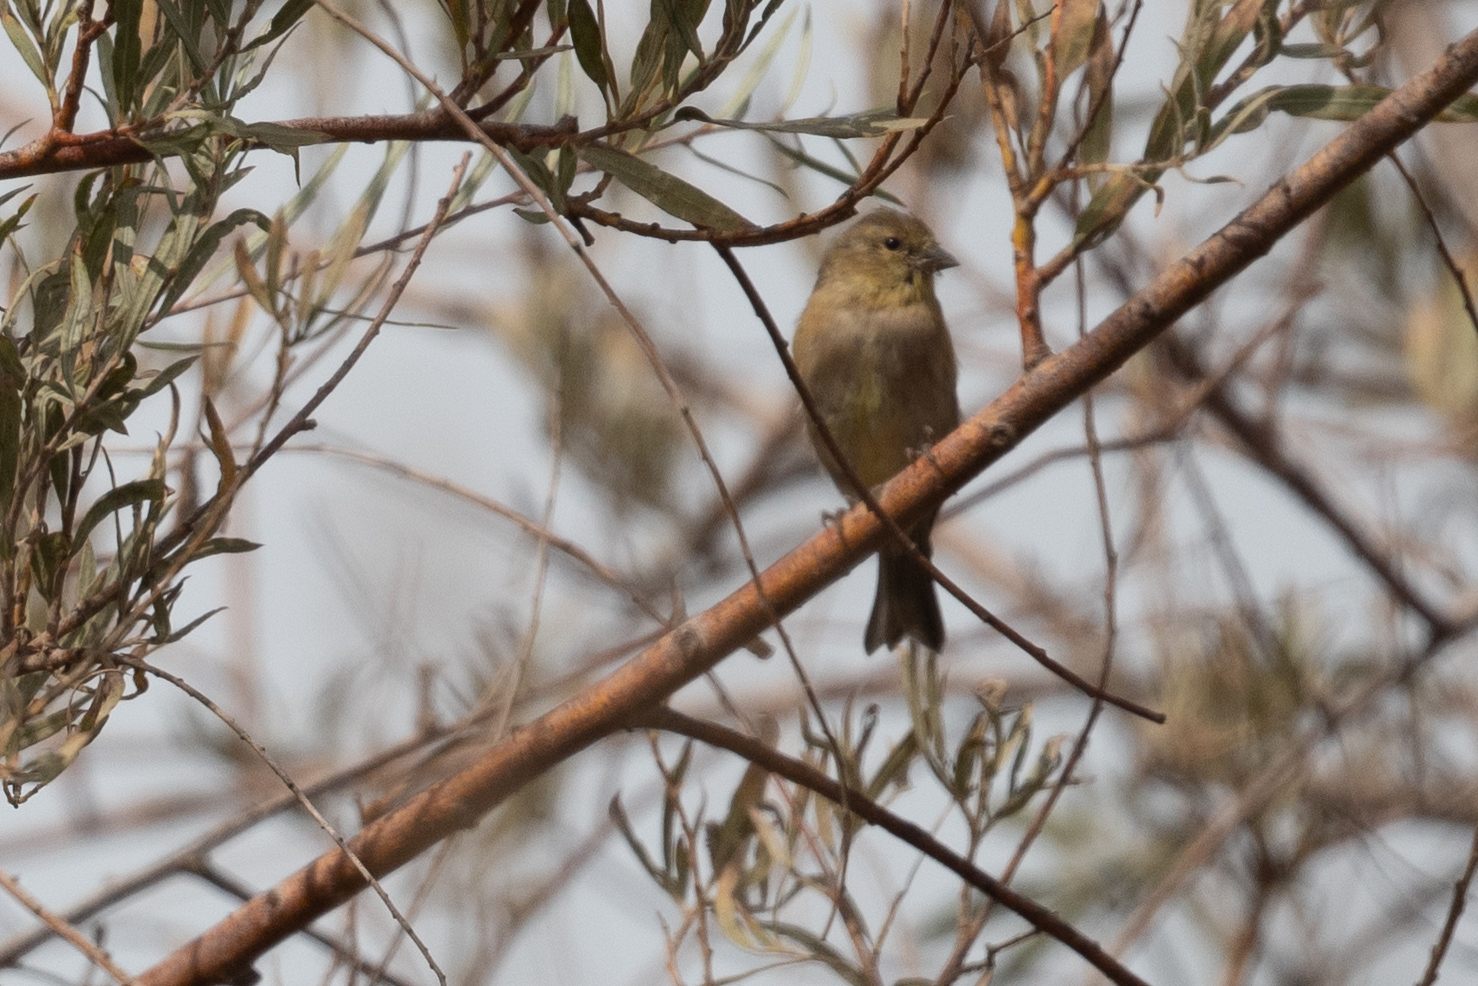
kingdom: Animalia
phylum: Chordata
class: Aves
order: Passeriformes
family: Fringillidae
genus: Spinus
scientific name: Spinus psaltria
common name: Lesser goldfinch
